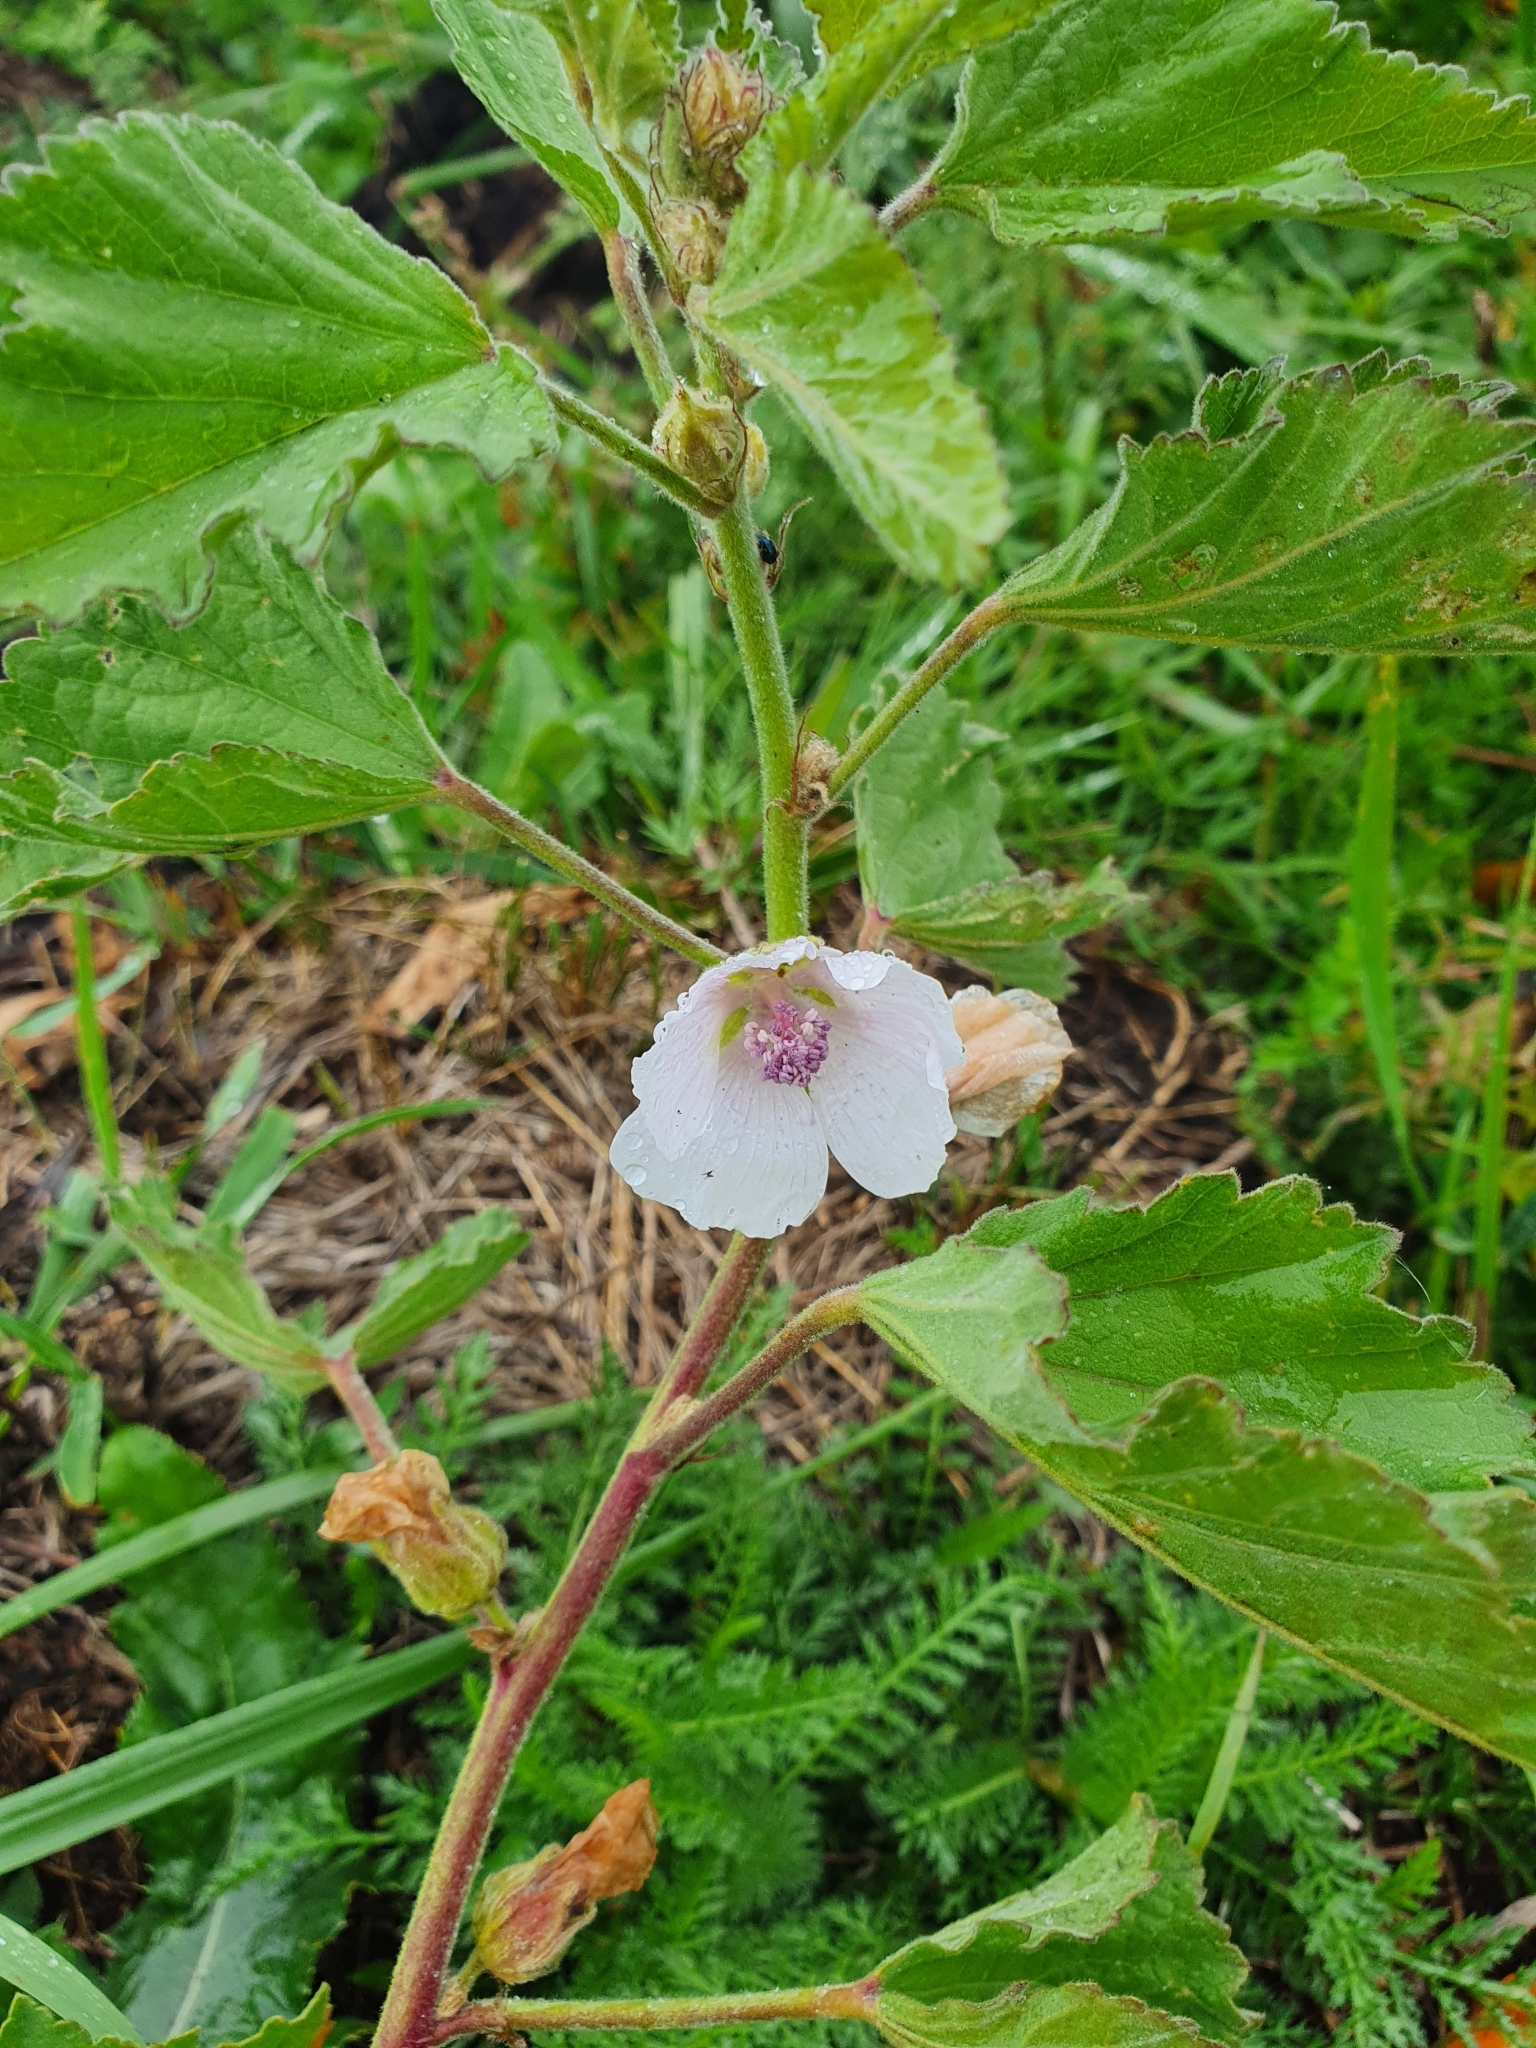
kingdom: Plantae
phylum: Tracheophyta
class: Magnoliopsida
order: Malvales
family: Malvaceae
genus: Althaea
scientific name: Althaea officinalis
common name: Marsh-mallow
